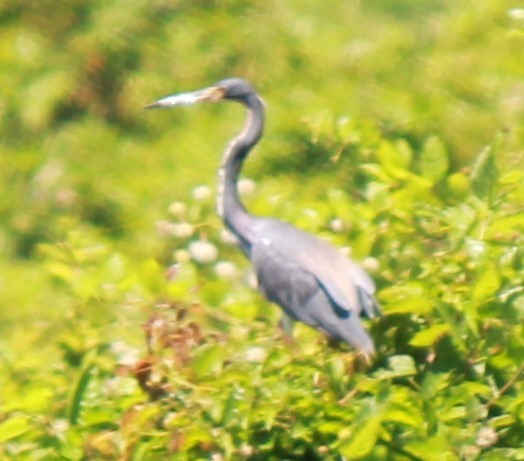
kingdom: Animalia
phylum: Chordata
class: Aves
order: Pelecaniformes
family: Ardeidae
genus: Egretta
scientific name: Egretta tricolor
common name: Tricolored heron
